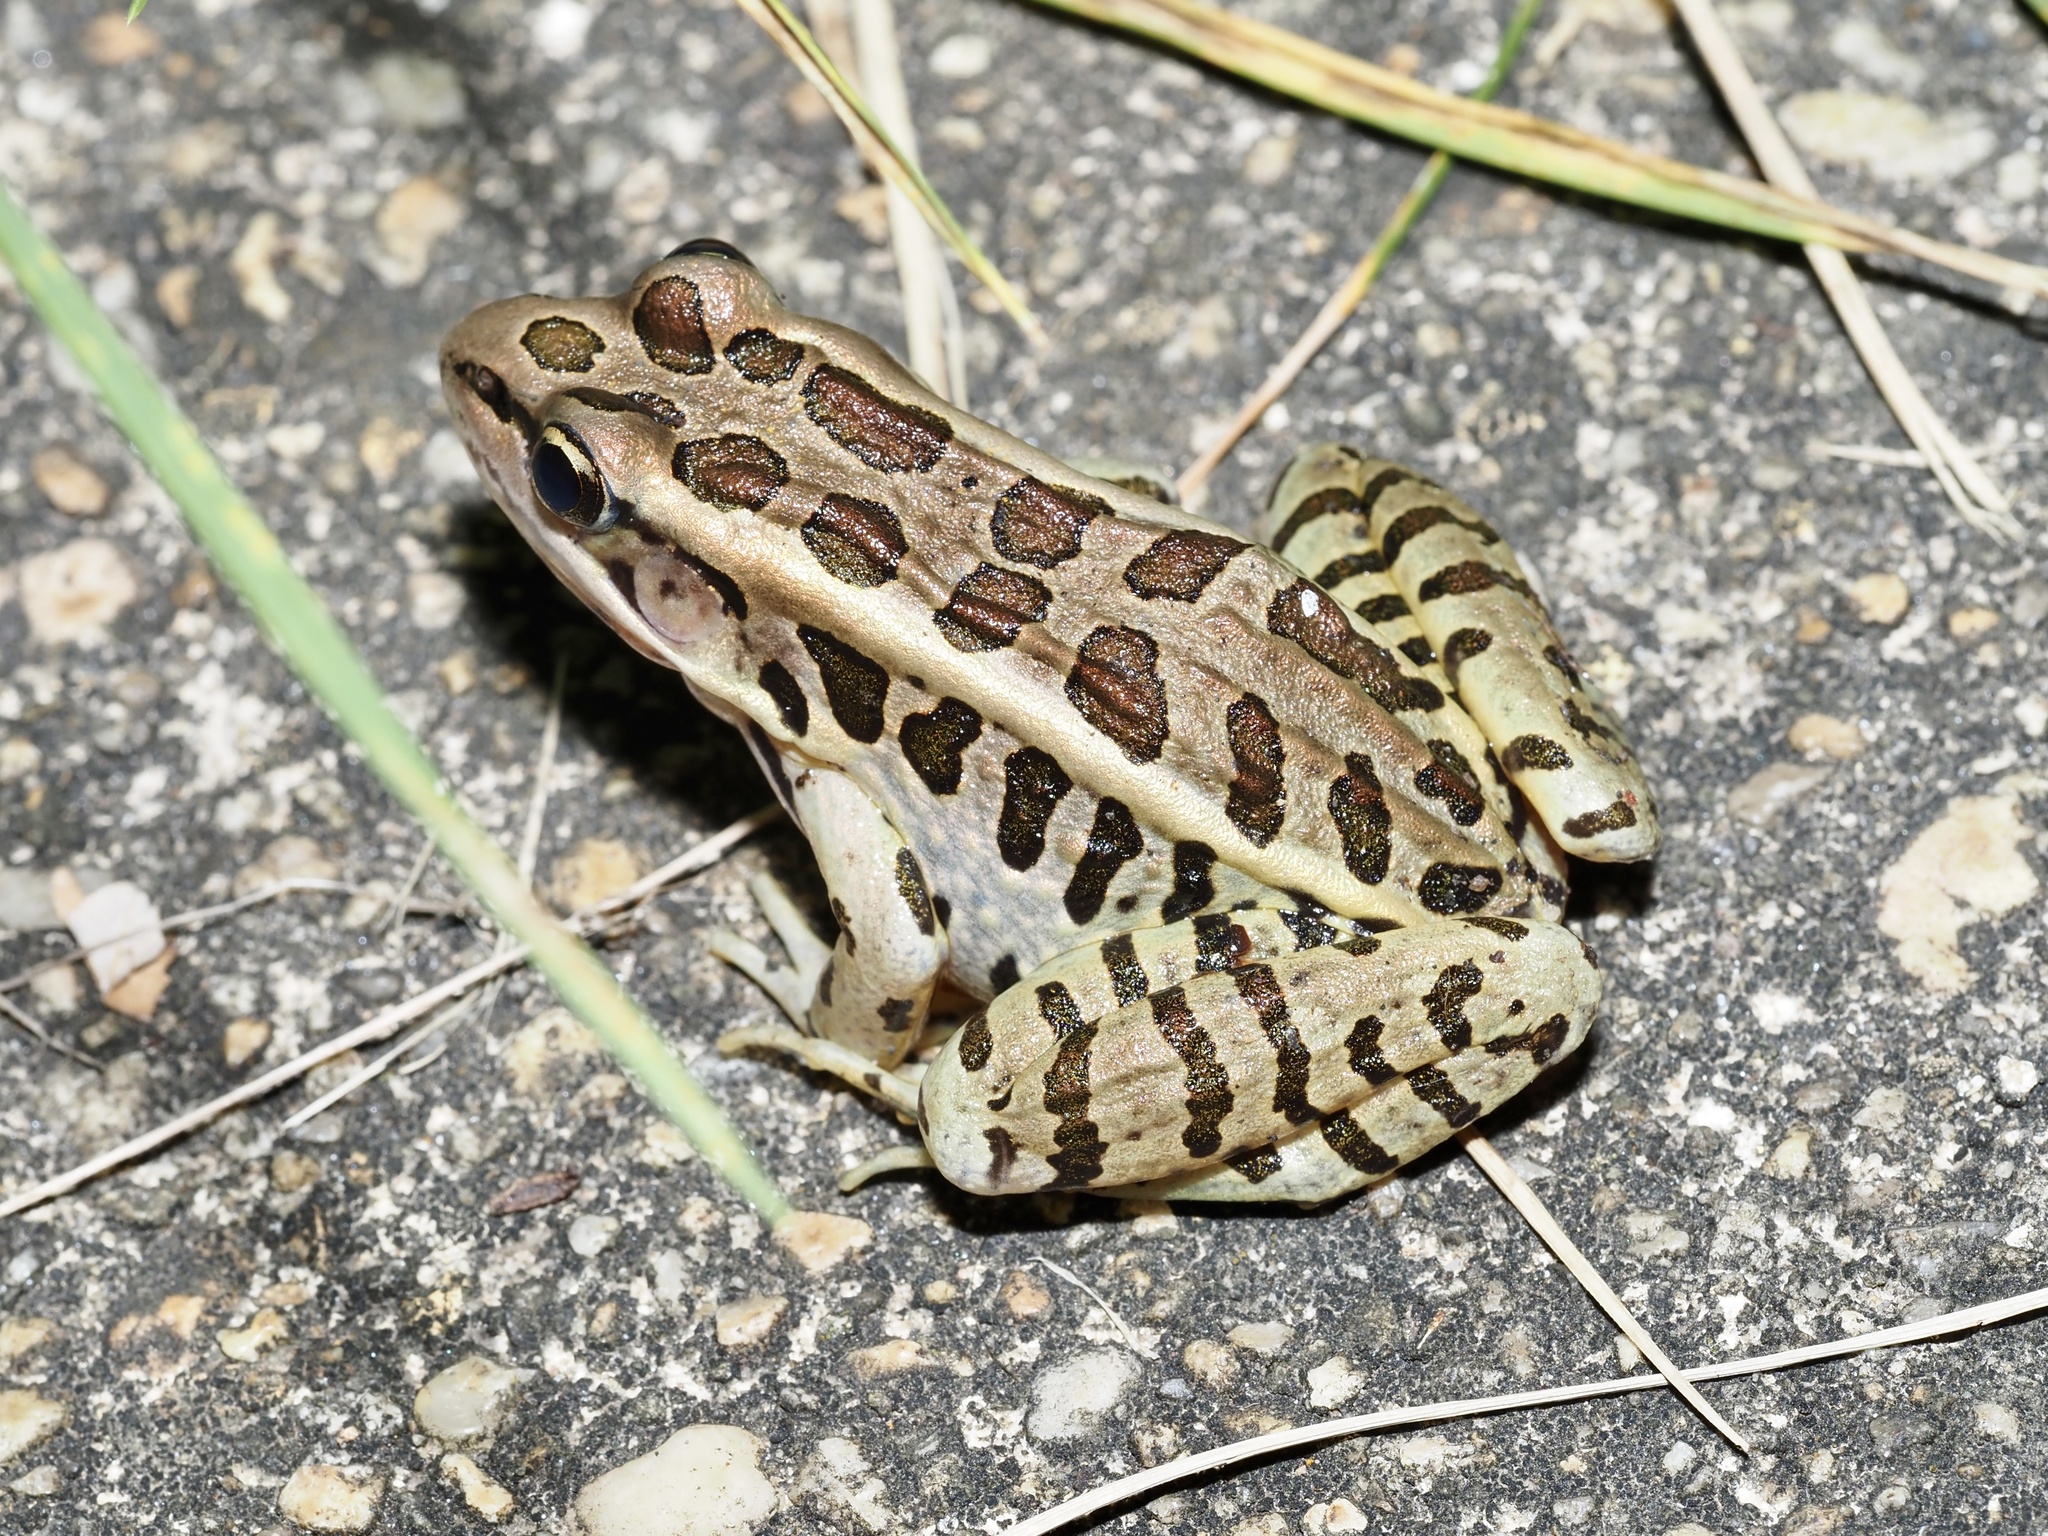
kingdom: Animalia
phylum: Chordata
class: Amphibia
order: Anura
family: Ranidae
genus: Lithobates
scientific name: Lithobates palustris
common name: Pickerel frog
